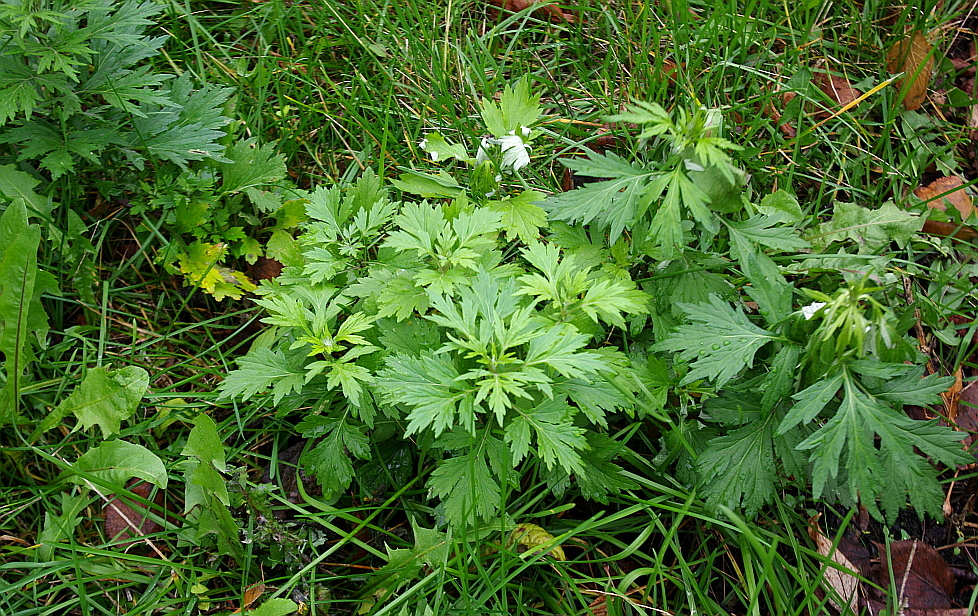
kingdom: Plantae
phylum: Tracheophyta
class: Magnoliopsida
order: Asterales
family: Asteraceae
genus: Artemisia
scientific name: Artemisia vulgaris
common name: Mugwort
